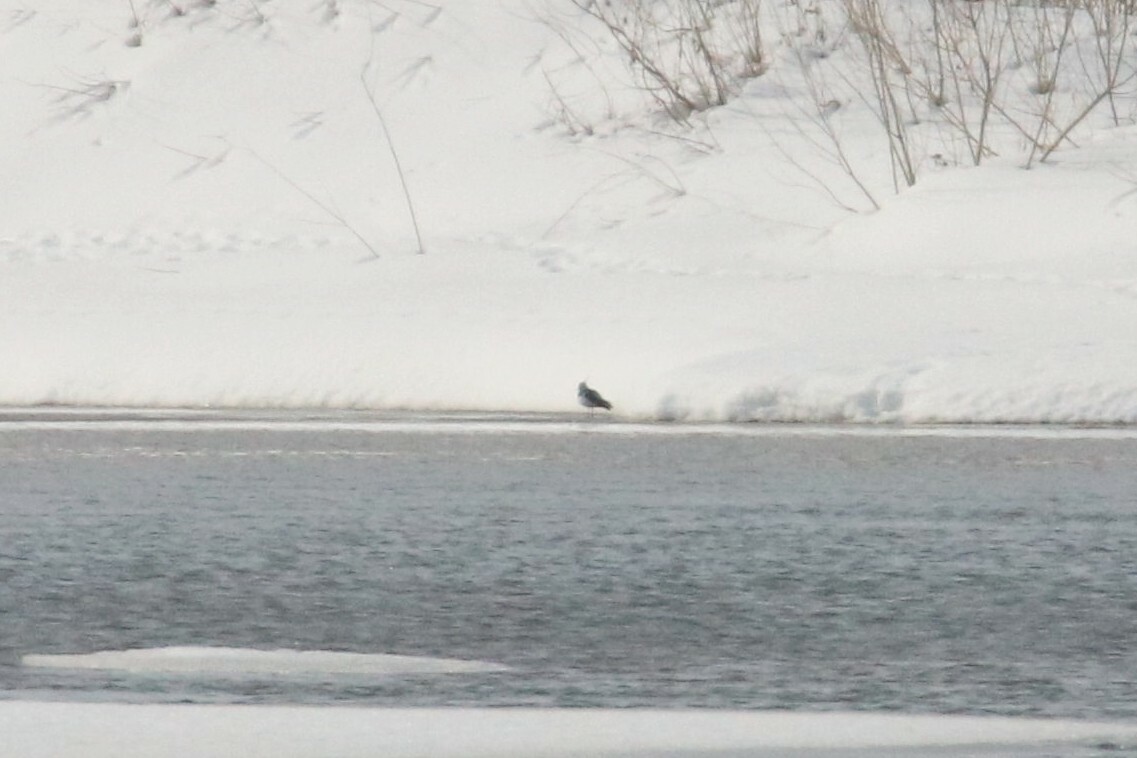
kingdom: Animalia
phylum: Chordata
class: Aves
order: Charadriiformes
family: Charadriidae
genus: Vanellus
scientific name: Vanellus vanellus
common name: Northern lapwing
